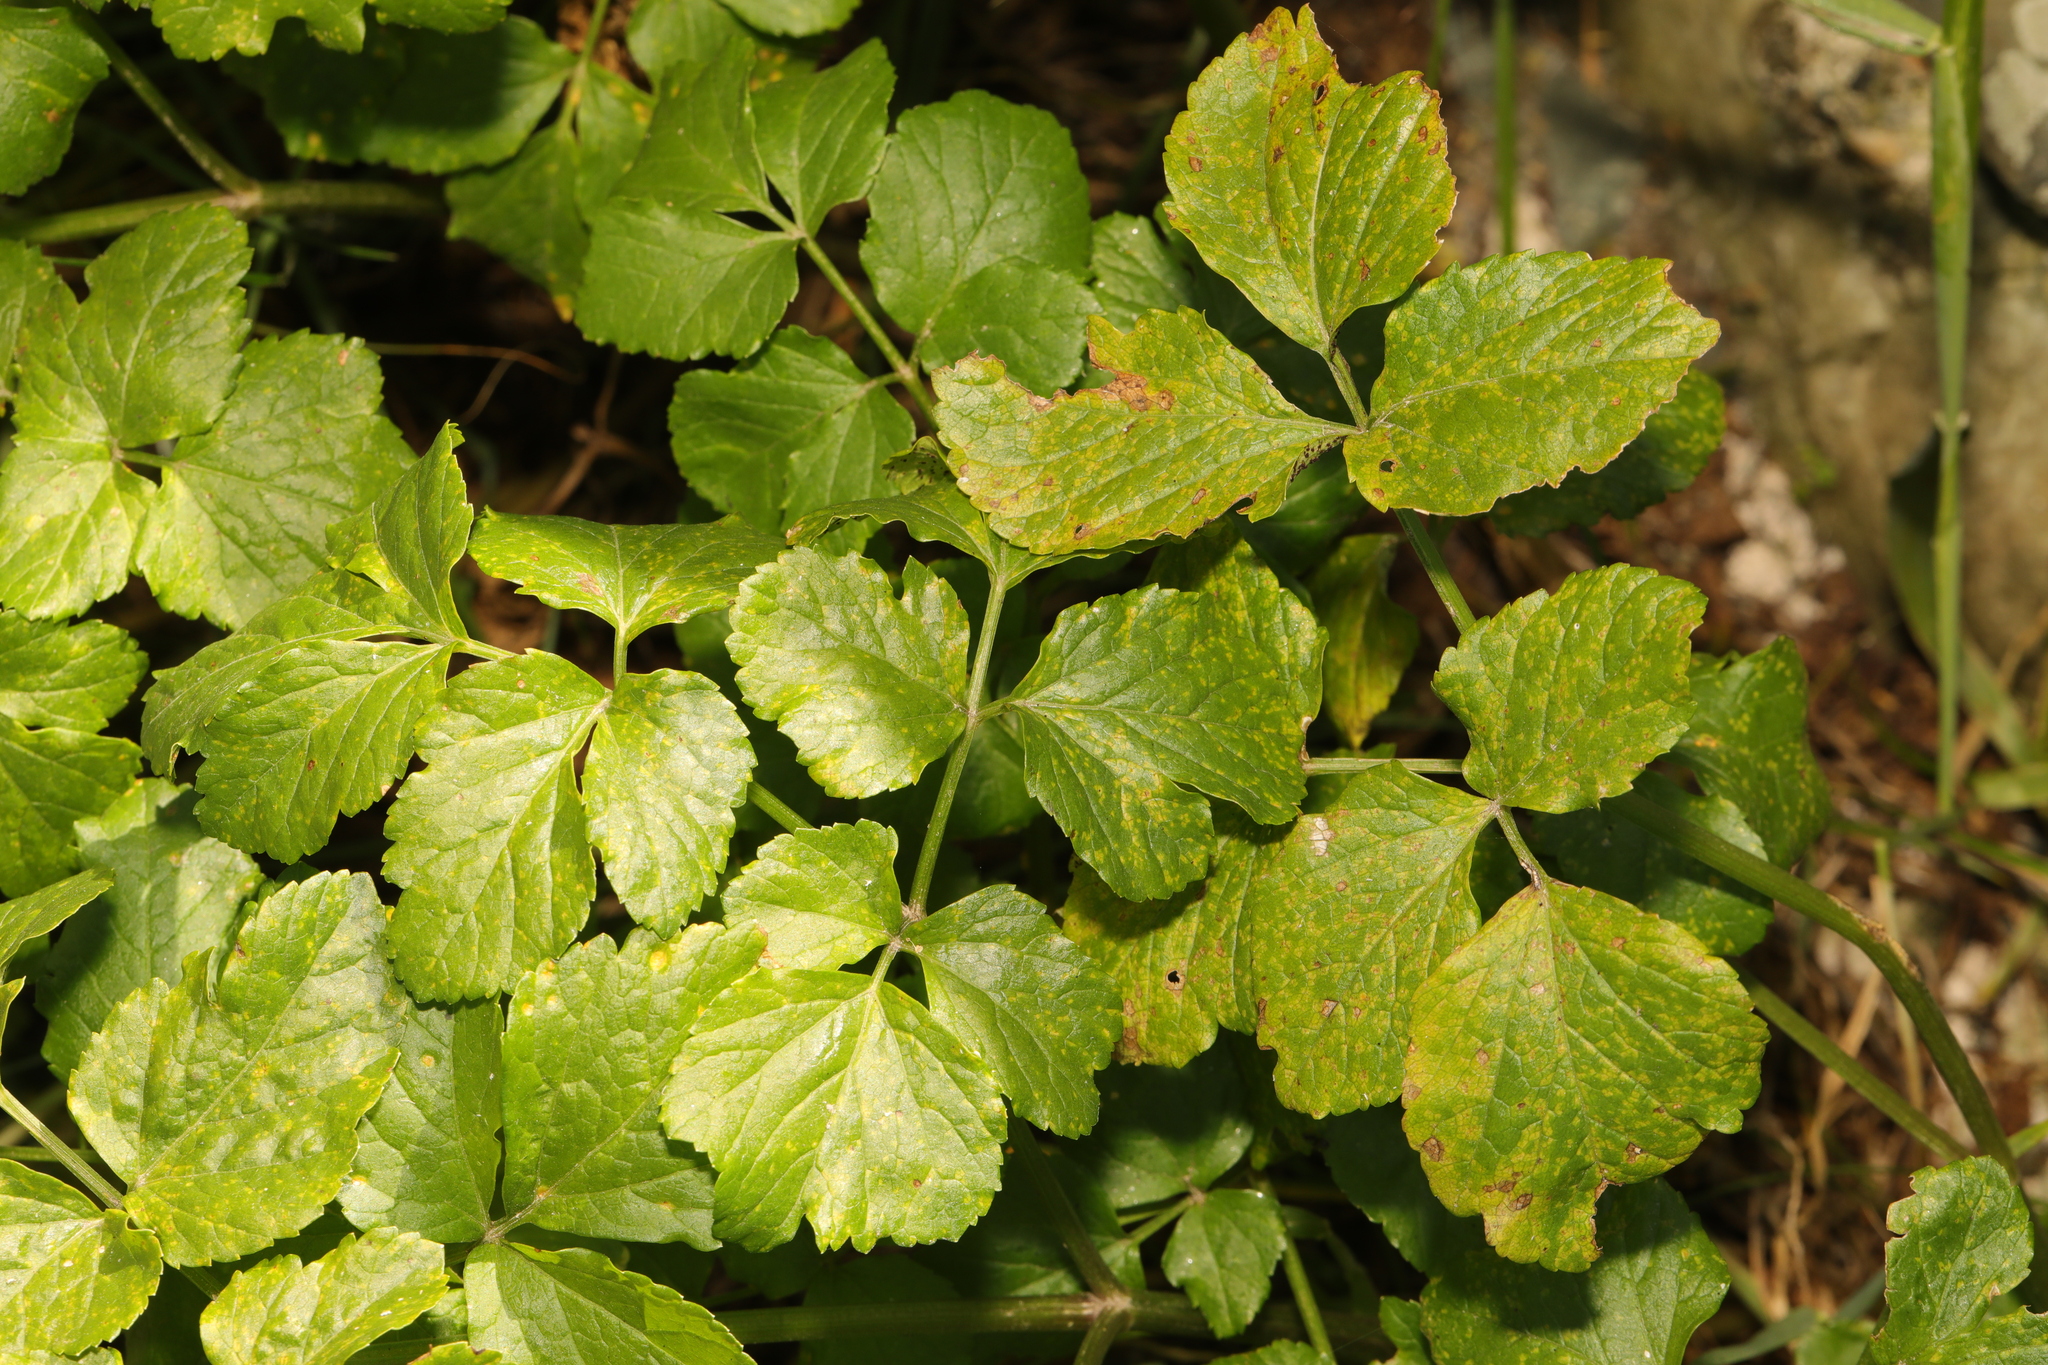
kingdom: Plantae
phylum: Tracheophyta
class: Magnoliopsida
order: Apiales
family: Apiaceae
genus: Smyrnium
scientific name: Smyrnium olusatrum
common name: Alexanders
